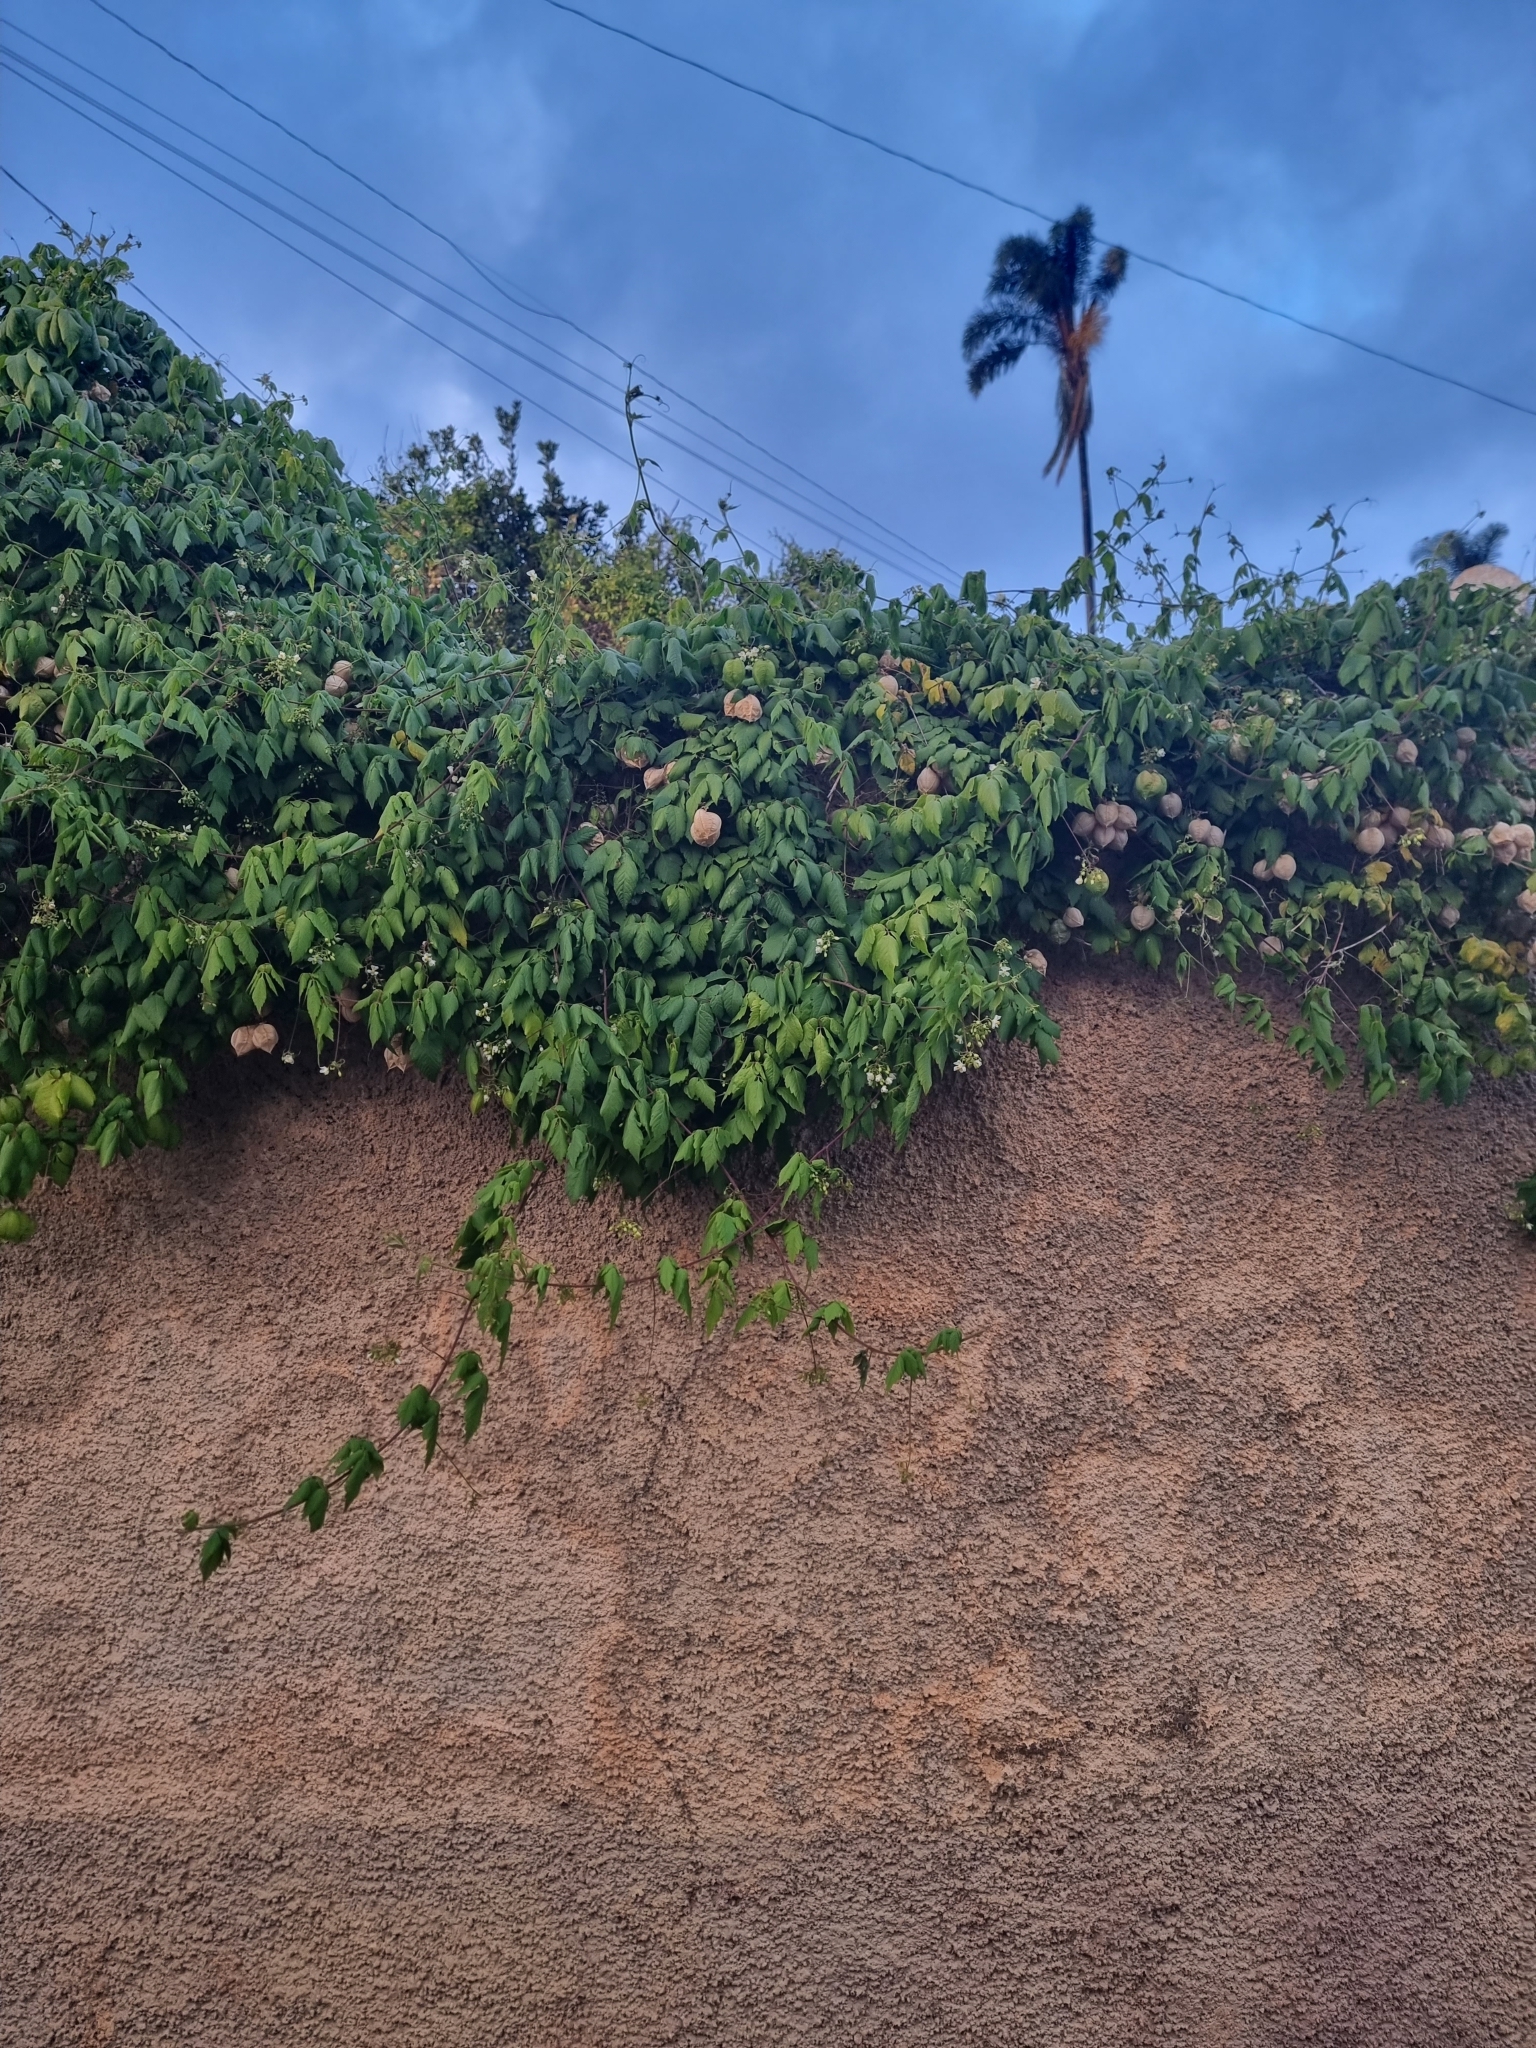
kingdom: Plantae
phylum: Tracheophyta
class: Magnoliopsida
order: Sapindales
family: Sapindaceae
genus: Cardiospermum
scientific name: Cardiospermum grandiflorum
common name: Balloon vine
